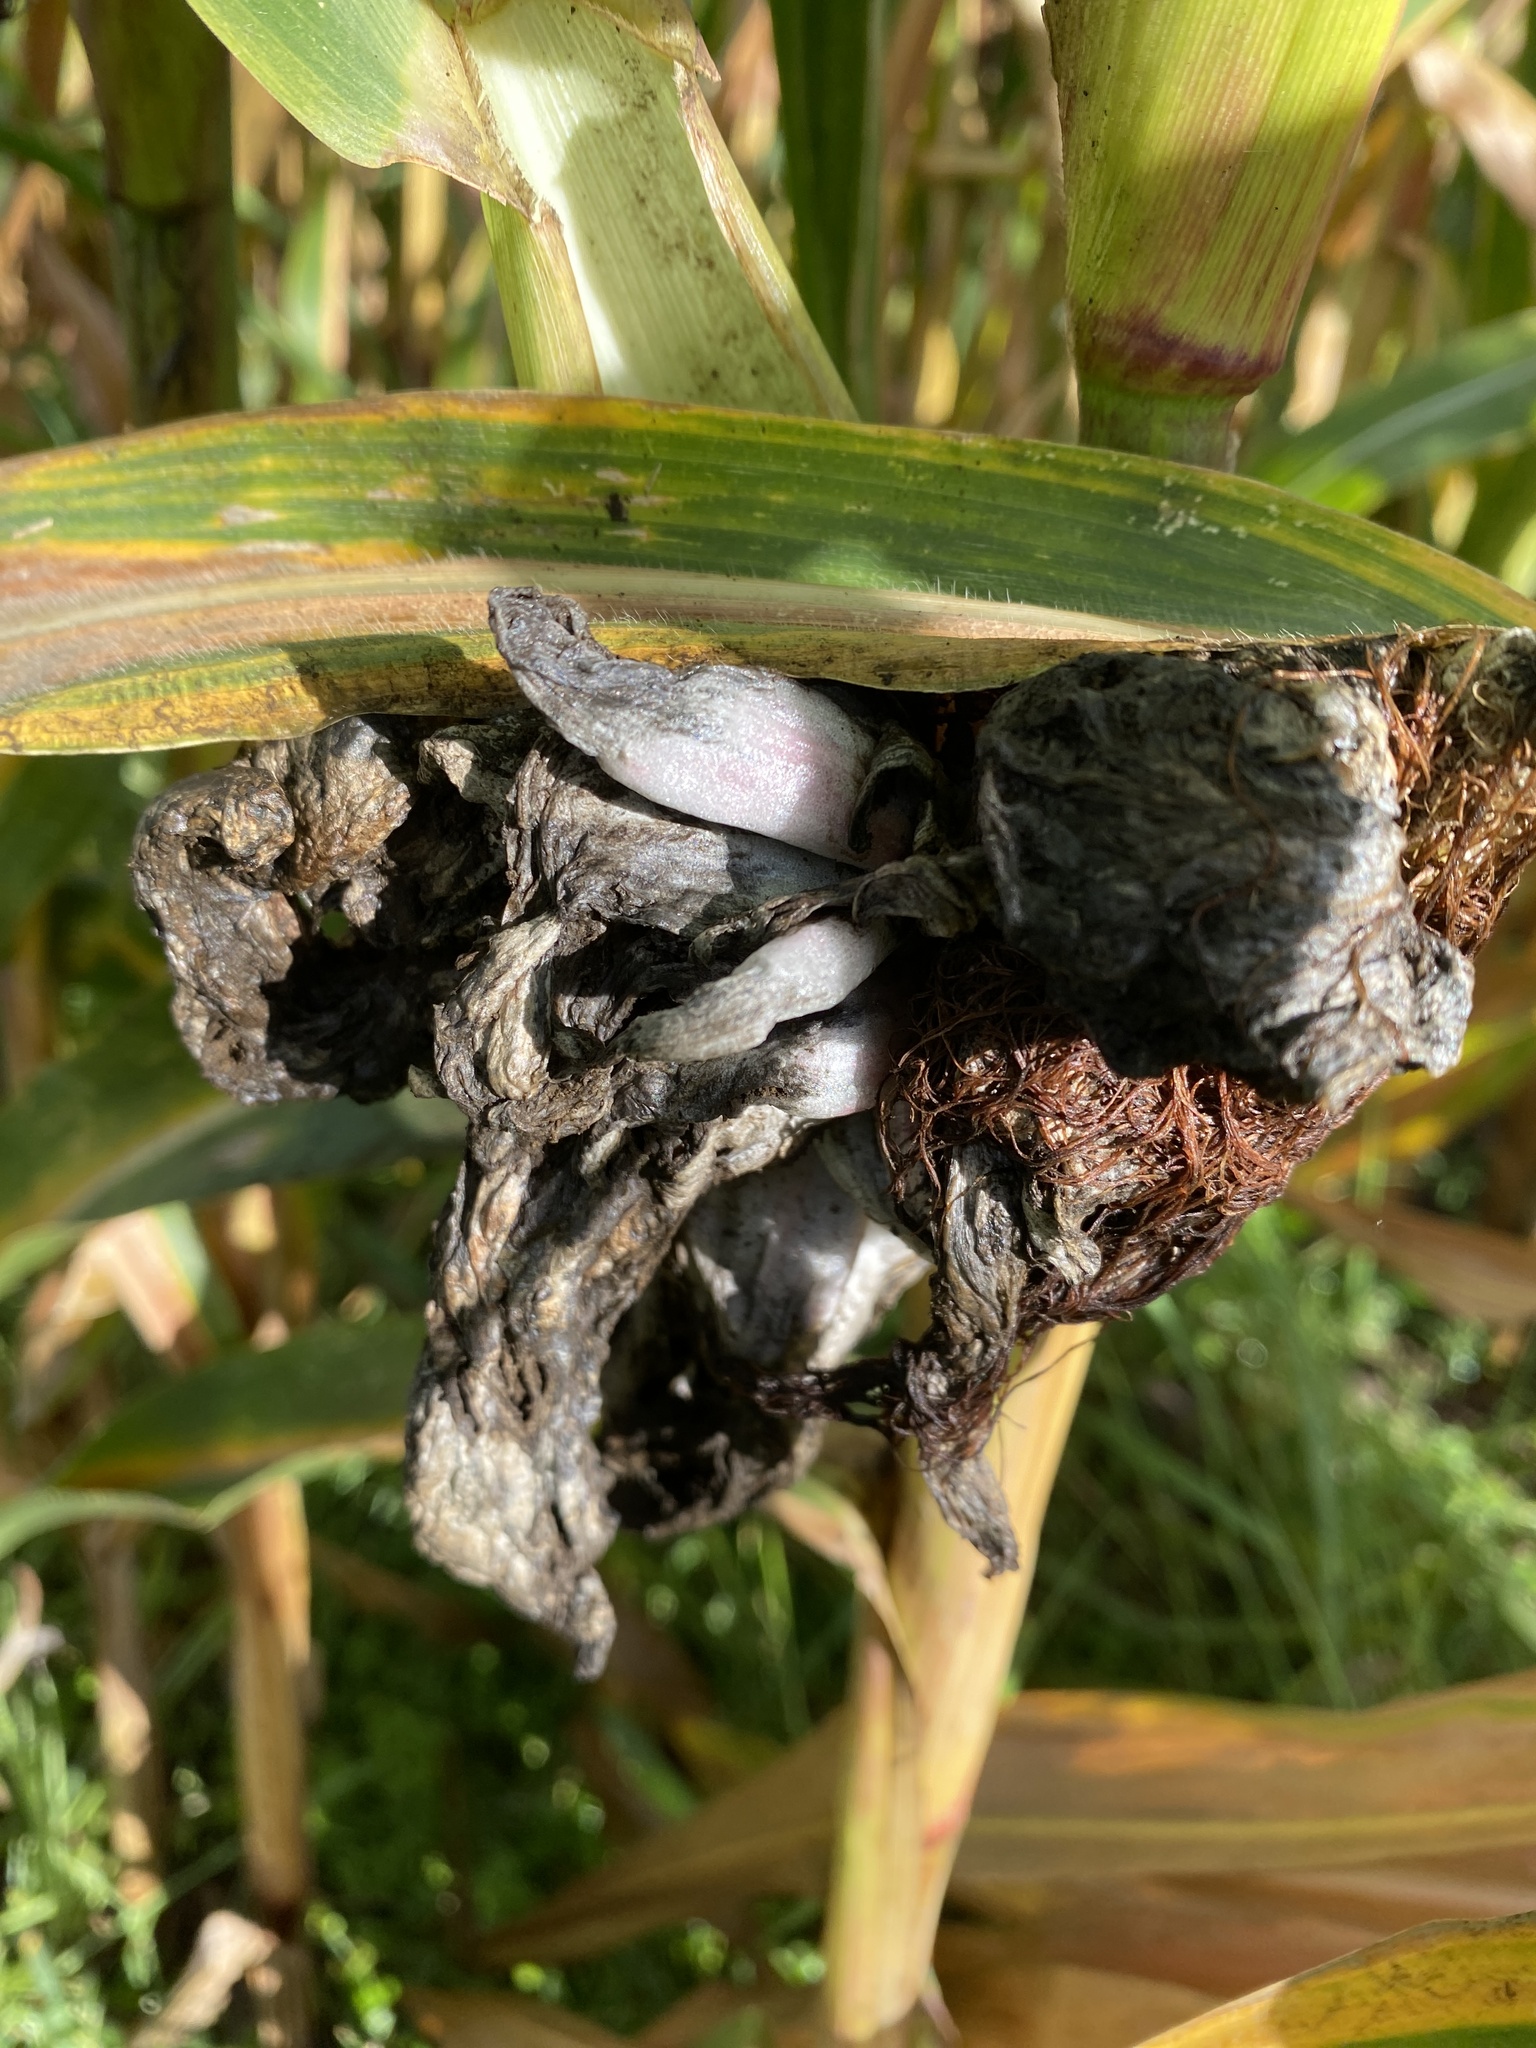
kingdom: Fungi
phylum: Basidiomycota
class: Ustilaginomycetes
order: Ustilaginales
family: Ustilaginaceae
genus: Mycosarcoma
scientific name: Mycosarcoma maydis
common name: Corn smut
